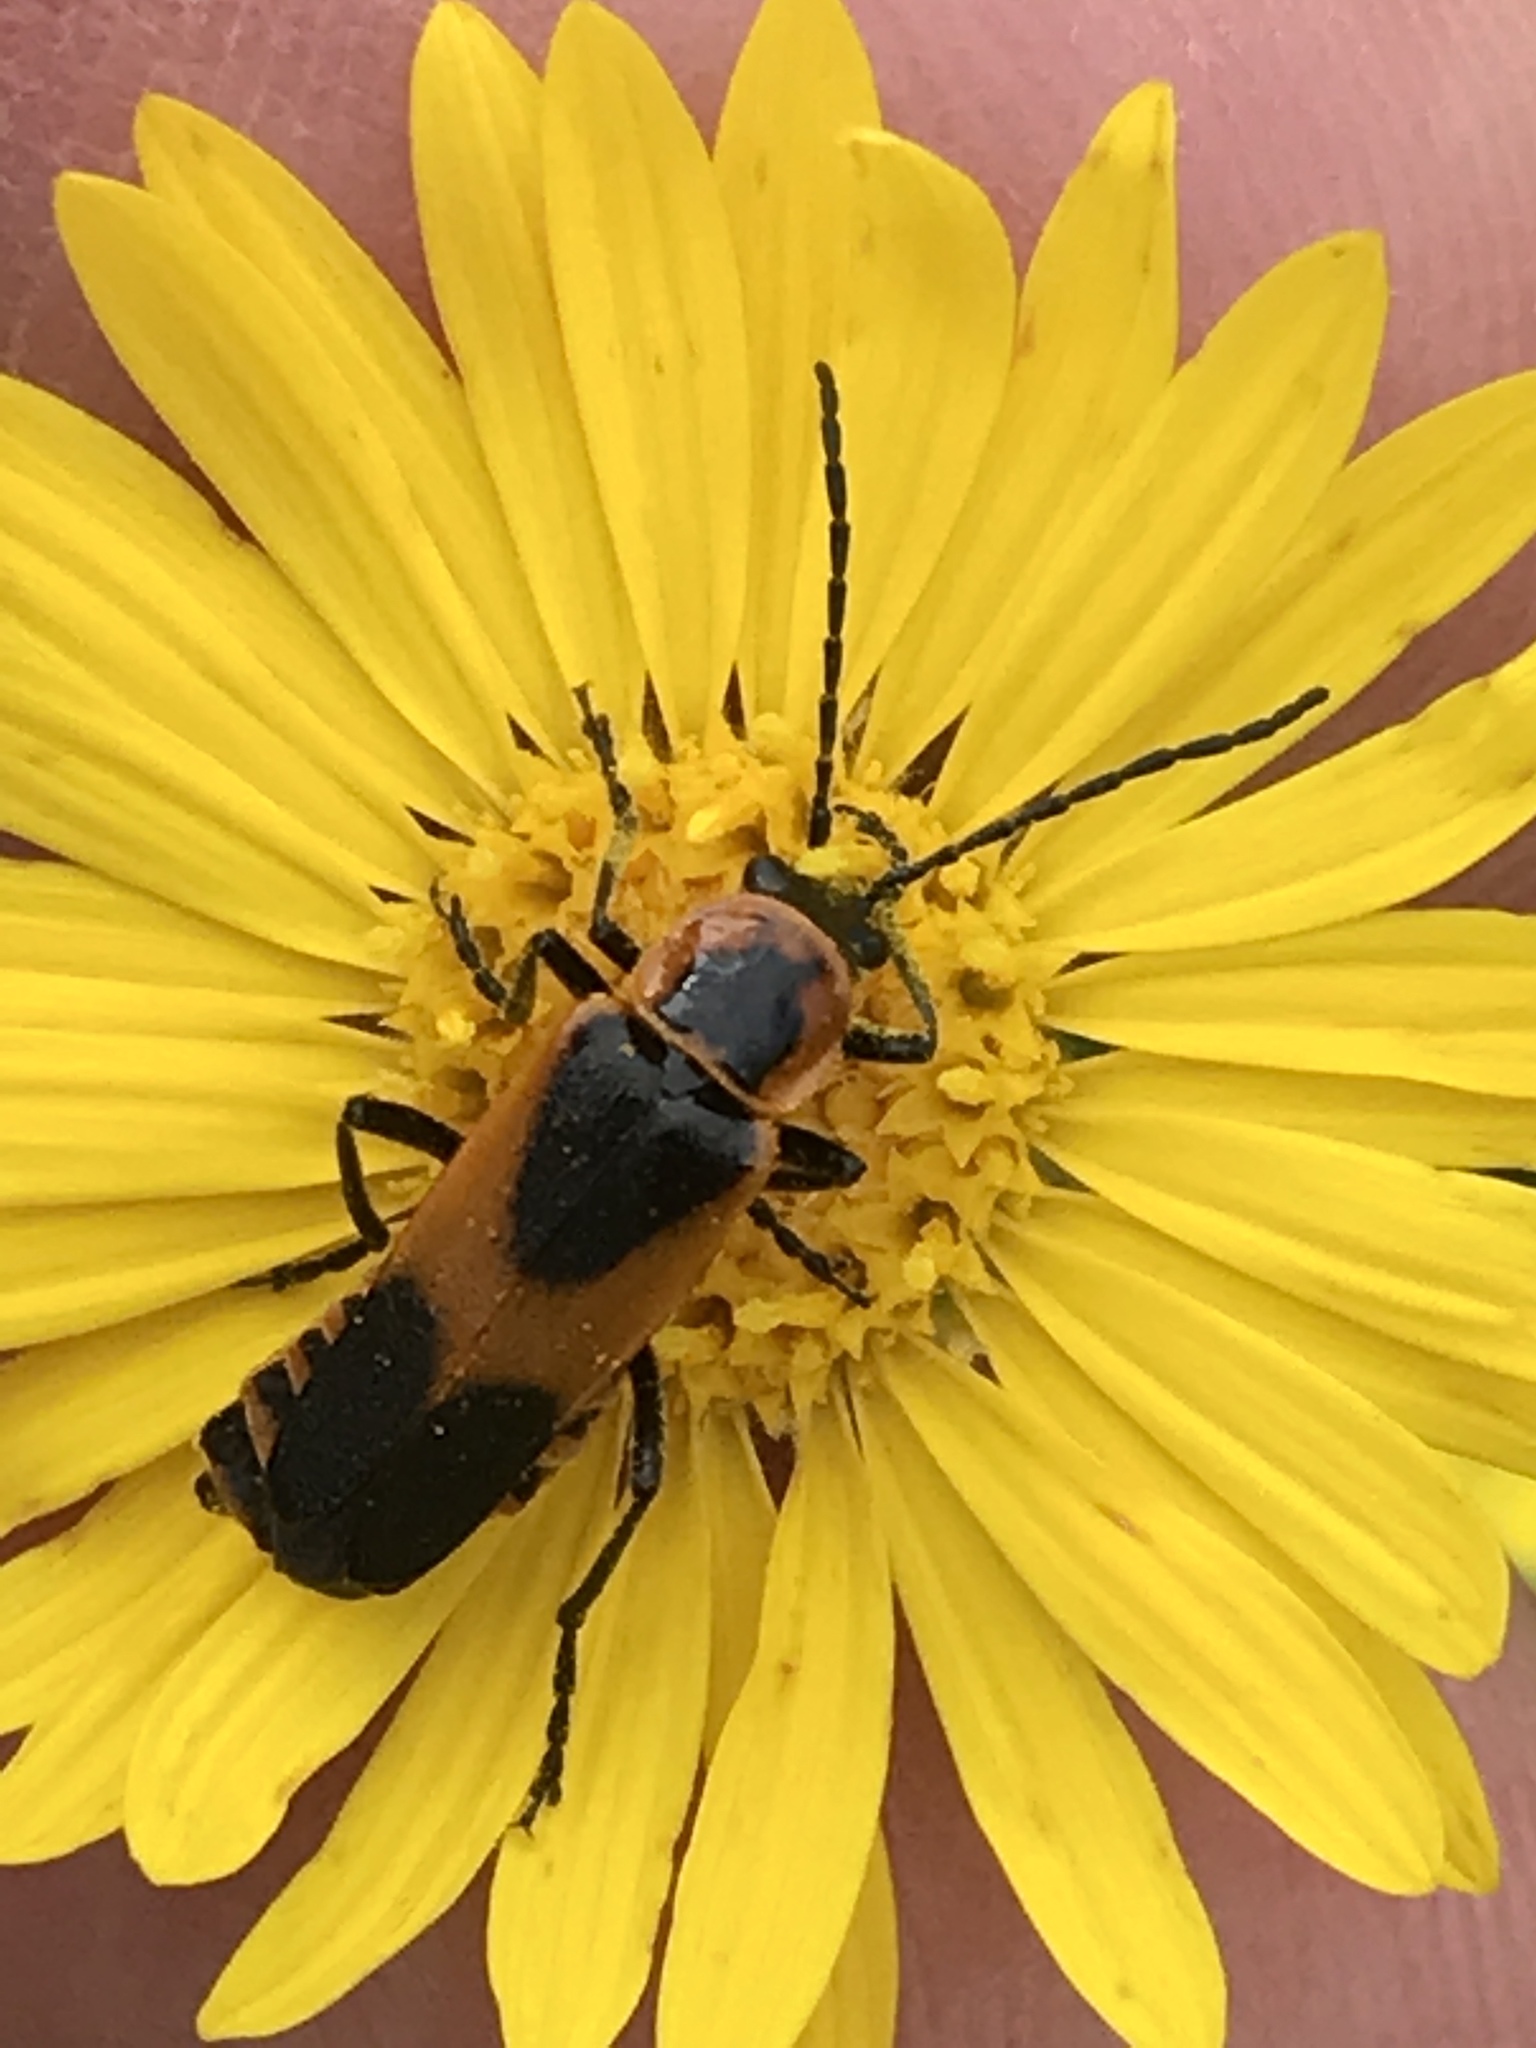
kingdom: Animalia
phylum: Arthropoda
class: Insecta
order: Coleoptera
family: Cantharidae
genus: Chauliognathus
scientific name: Chauliognathus basalis
